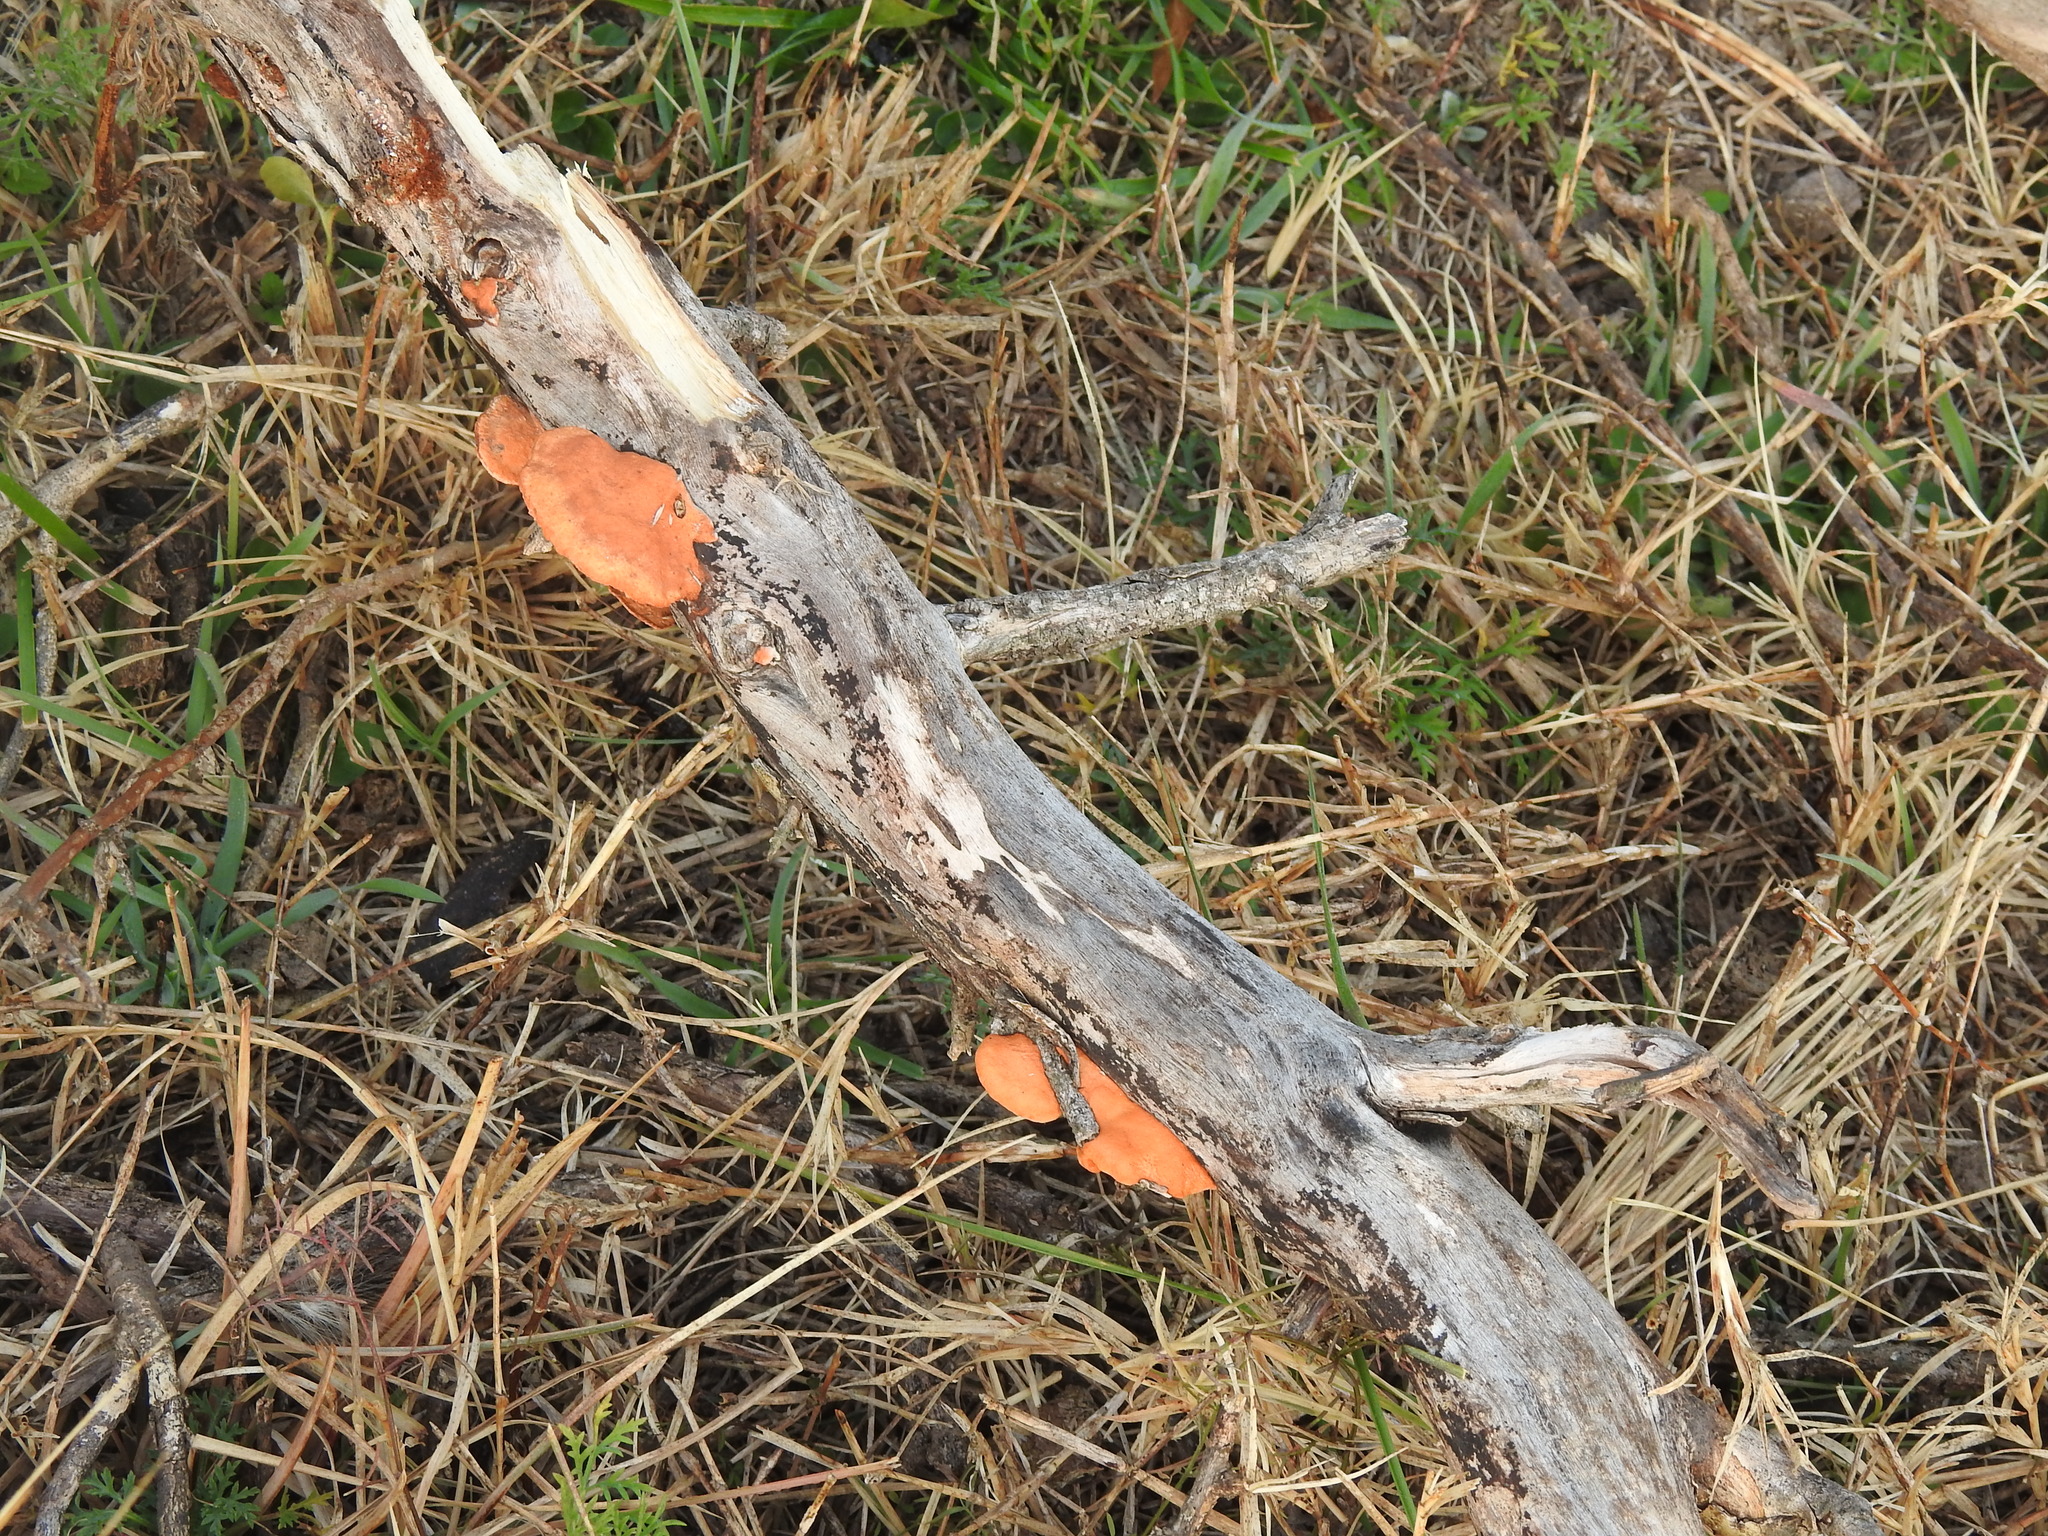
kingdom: Fungi
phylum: Basidiomycota
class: Agaricomycetes
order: Polyporales
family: Polyporaceae
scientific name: Polyporaceae
